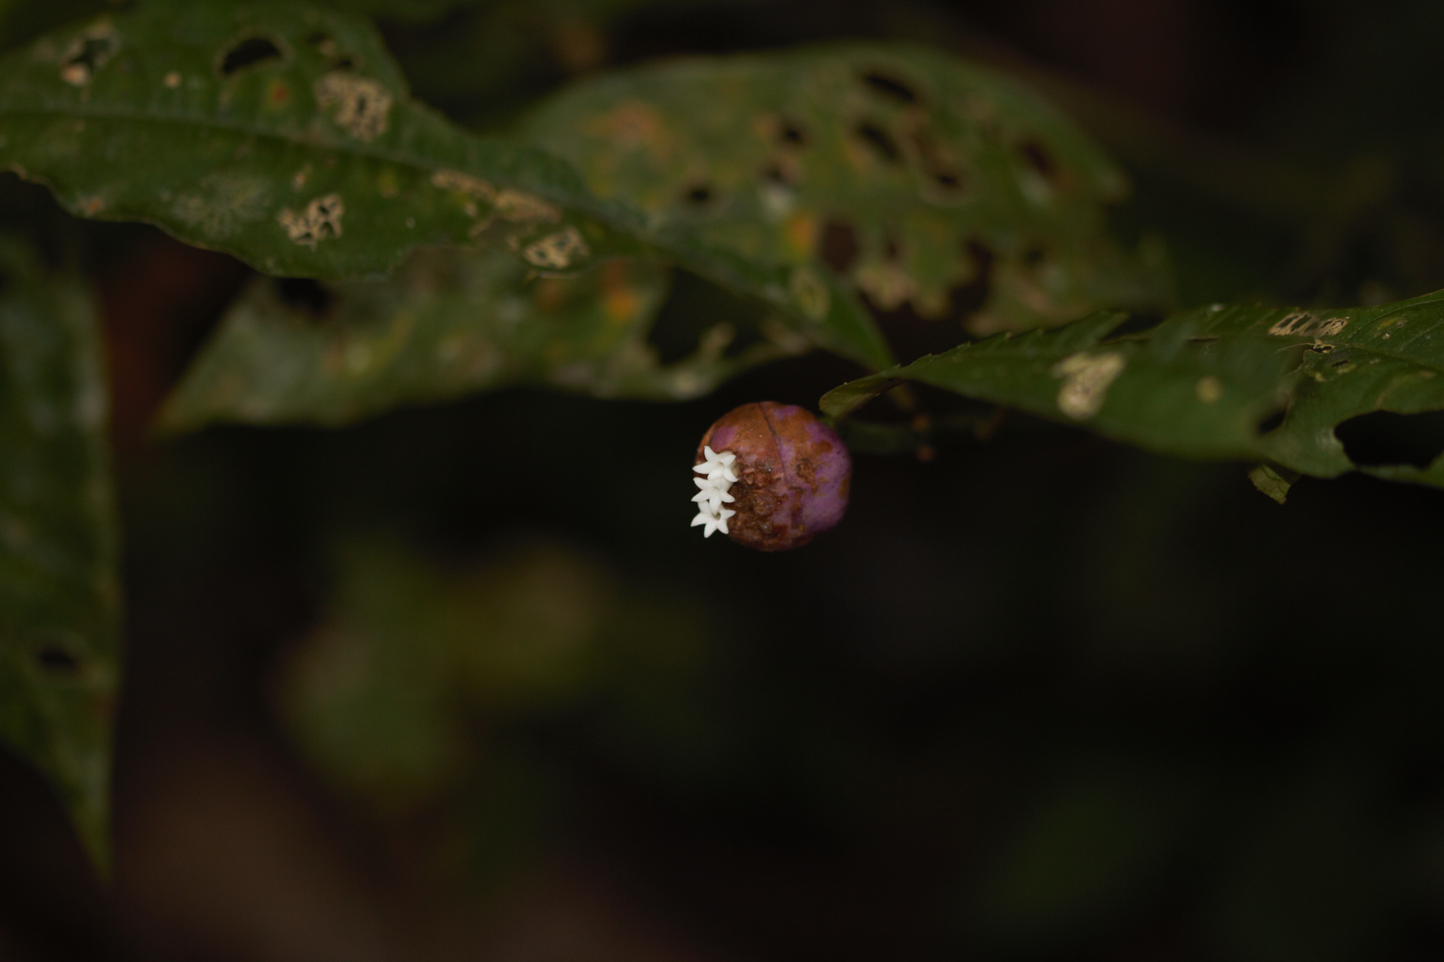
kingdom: Plantae
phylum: Tracheophyta
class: Magnoliopsida
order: Gentianales
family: Rubiaceae
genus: Palicourea
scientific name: Palicourea apoda
